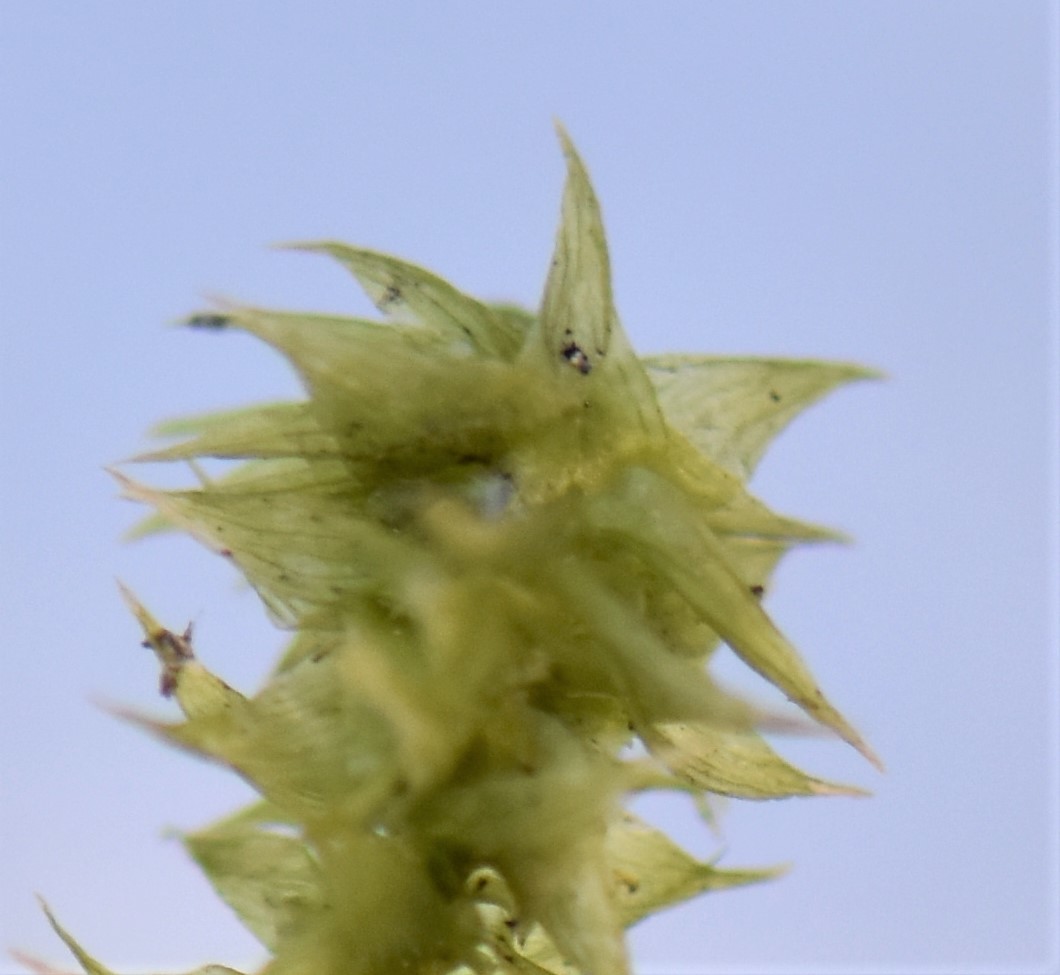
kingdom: Plantae
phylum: Bryophyta
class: Bryopsida
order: Hypnales
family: Hylocomiaceae
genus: Hylocomiadelphus
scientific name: Hylocomiadelphus triquetrus
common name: Rough goose neck moss
